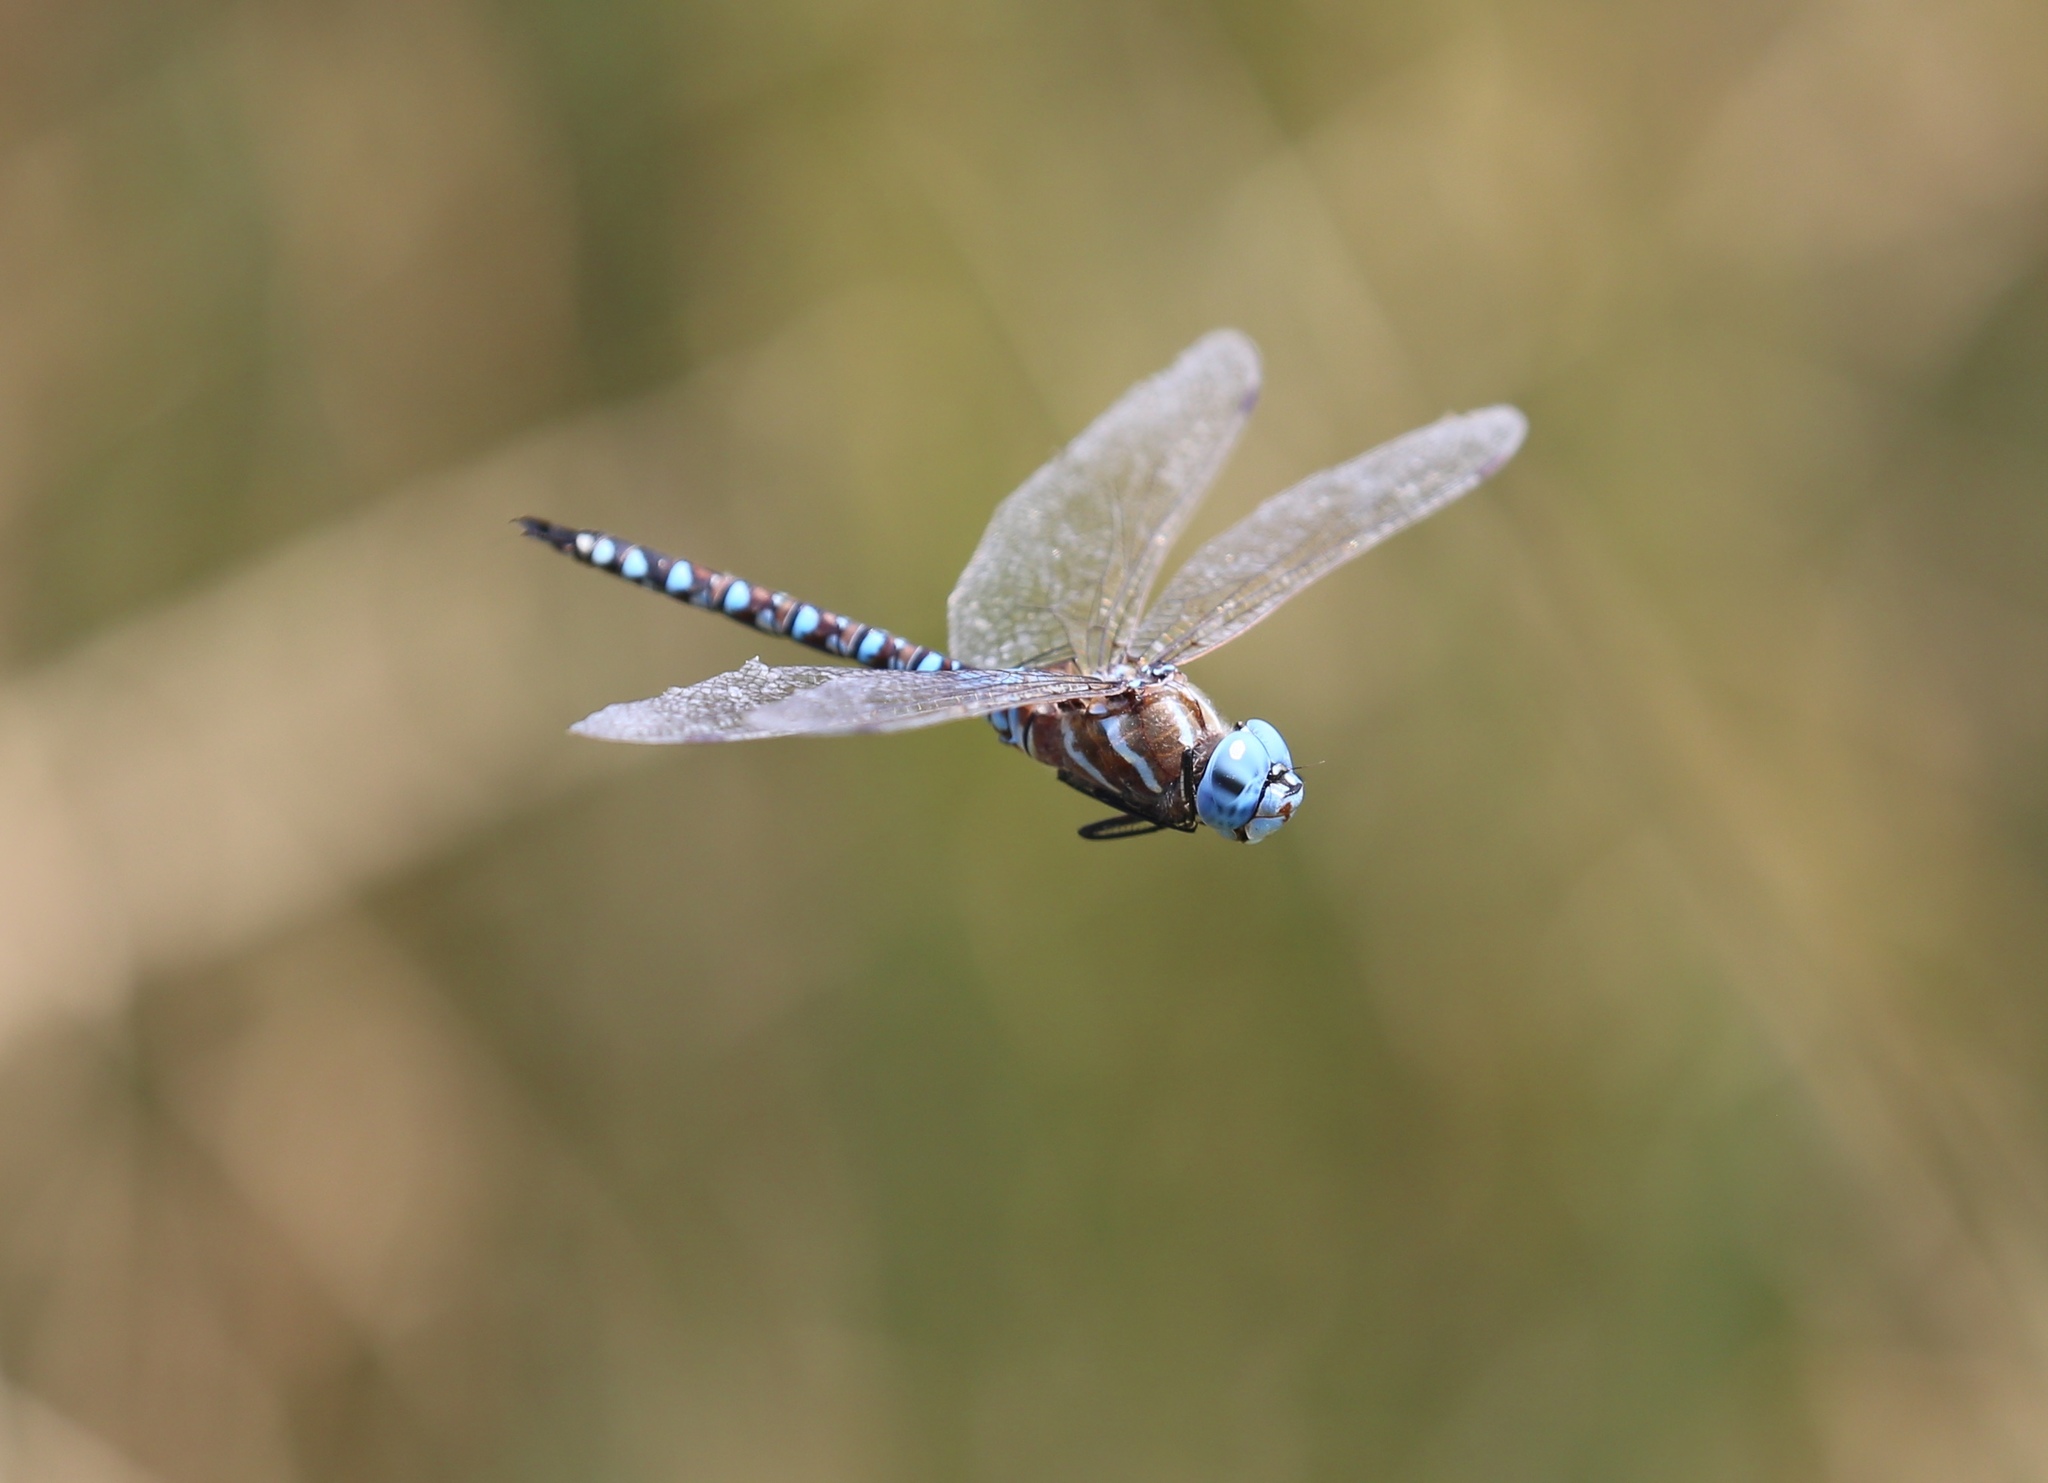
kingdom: Animalia
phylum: Arthropoda
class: Insecta
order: Odonata
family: Aeshnidae
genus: Rhionaeschna
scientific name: Rhionaeschna multicolor
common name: Blue-eyed darner
